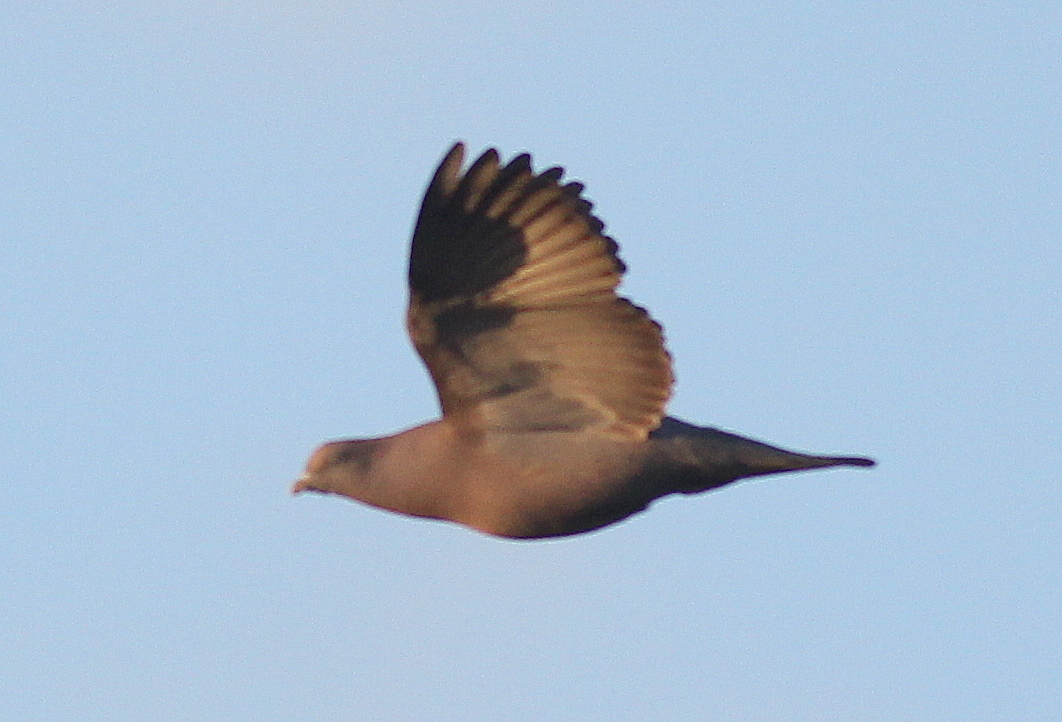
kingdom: Animalia
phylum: Chordata
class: Aves
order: Columbiformes
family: Columbidae
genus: Patagioenas
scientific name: Patagioenas maculosa
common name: Spot-winged pigeon
